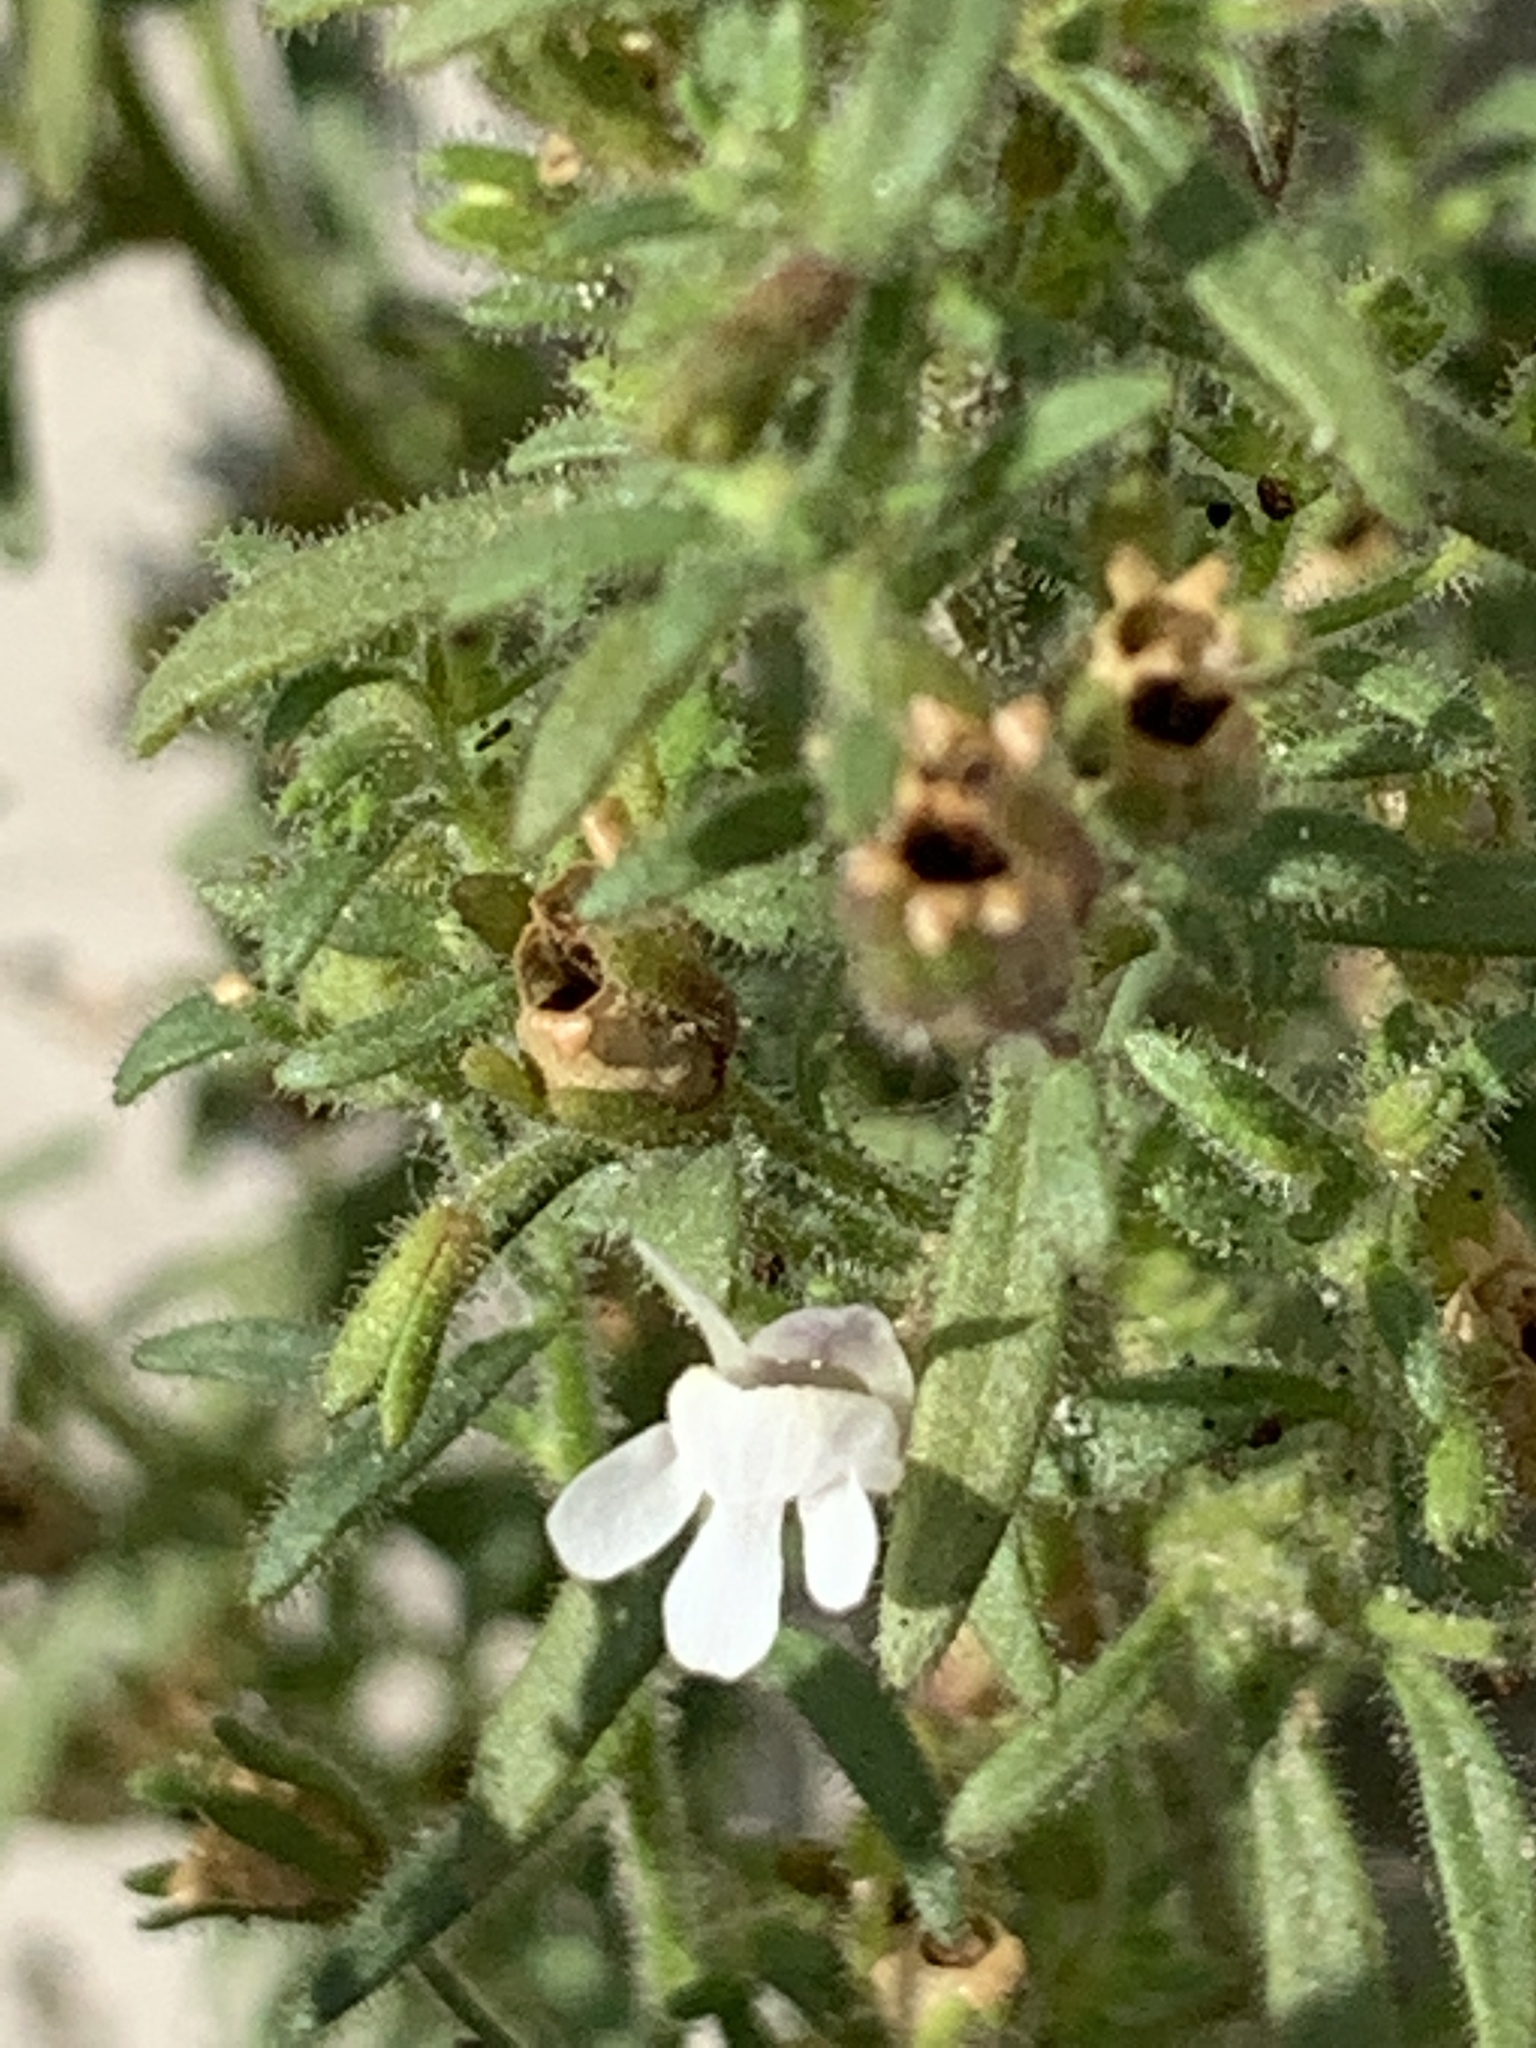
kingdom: Plantae
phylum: Tracheophyta
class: Magnoliopsida
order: Lamiales
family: Plantaginaceae
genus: Chaenorhinum
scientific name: Chaenorhinum minus
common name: Dwarf snapdragon
